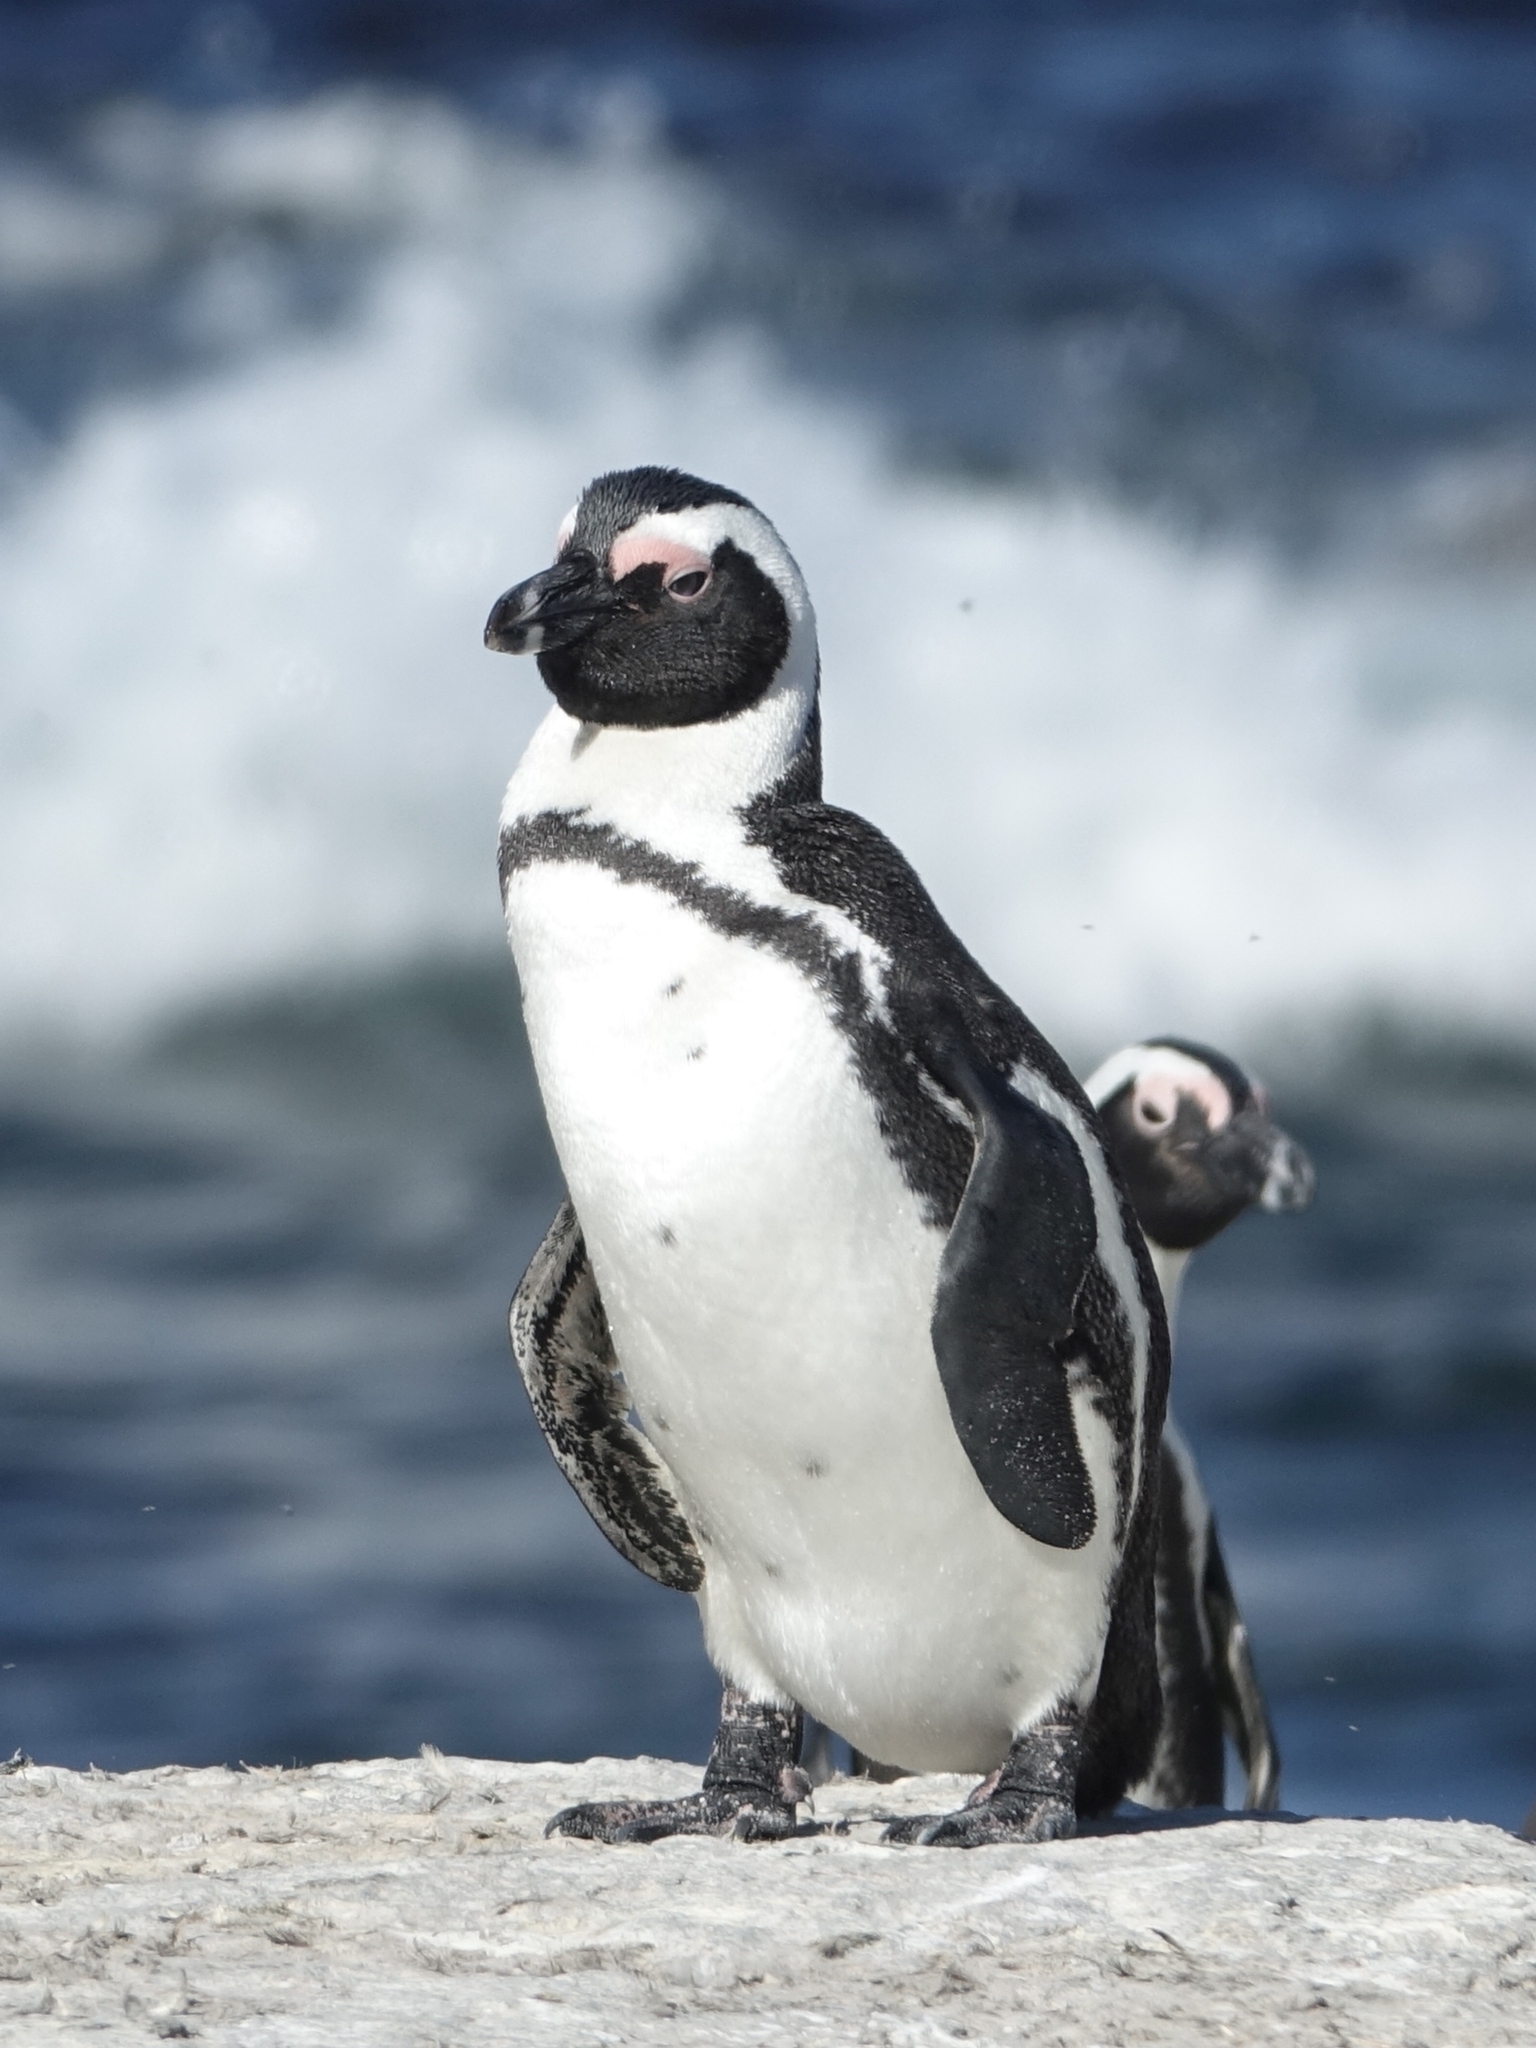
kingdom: Animalia
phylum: Chordata
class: Aves
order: Sphenisciformes
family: Spheniscidae
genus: Spheniscus
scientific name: Spheniscus demersus
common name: African penguin
